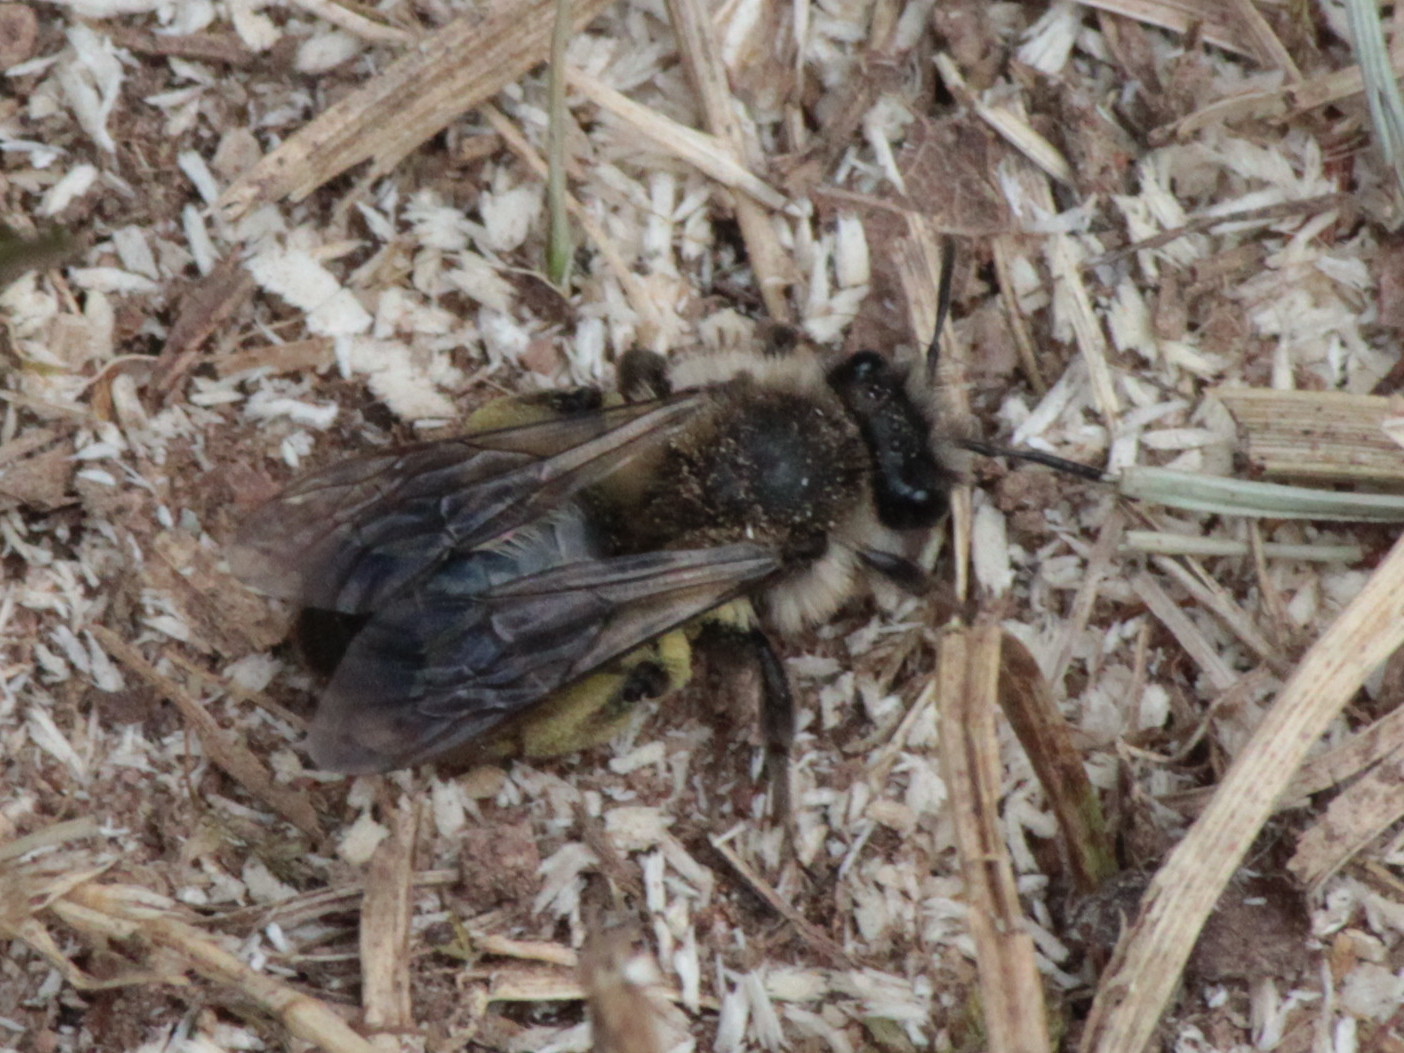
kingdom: Animalia
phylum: Arthropoda
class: Insecta
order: Hymenoptera
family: Andrenidae
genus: Andrena
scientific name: Andrena frigida
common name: Frigid mining bee
